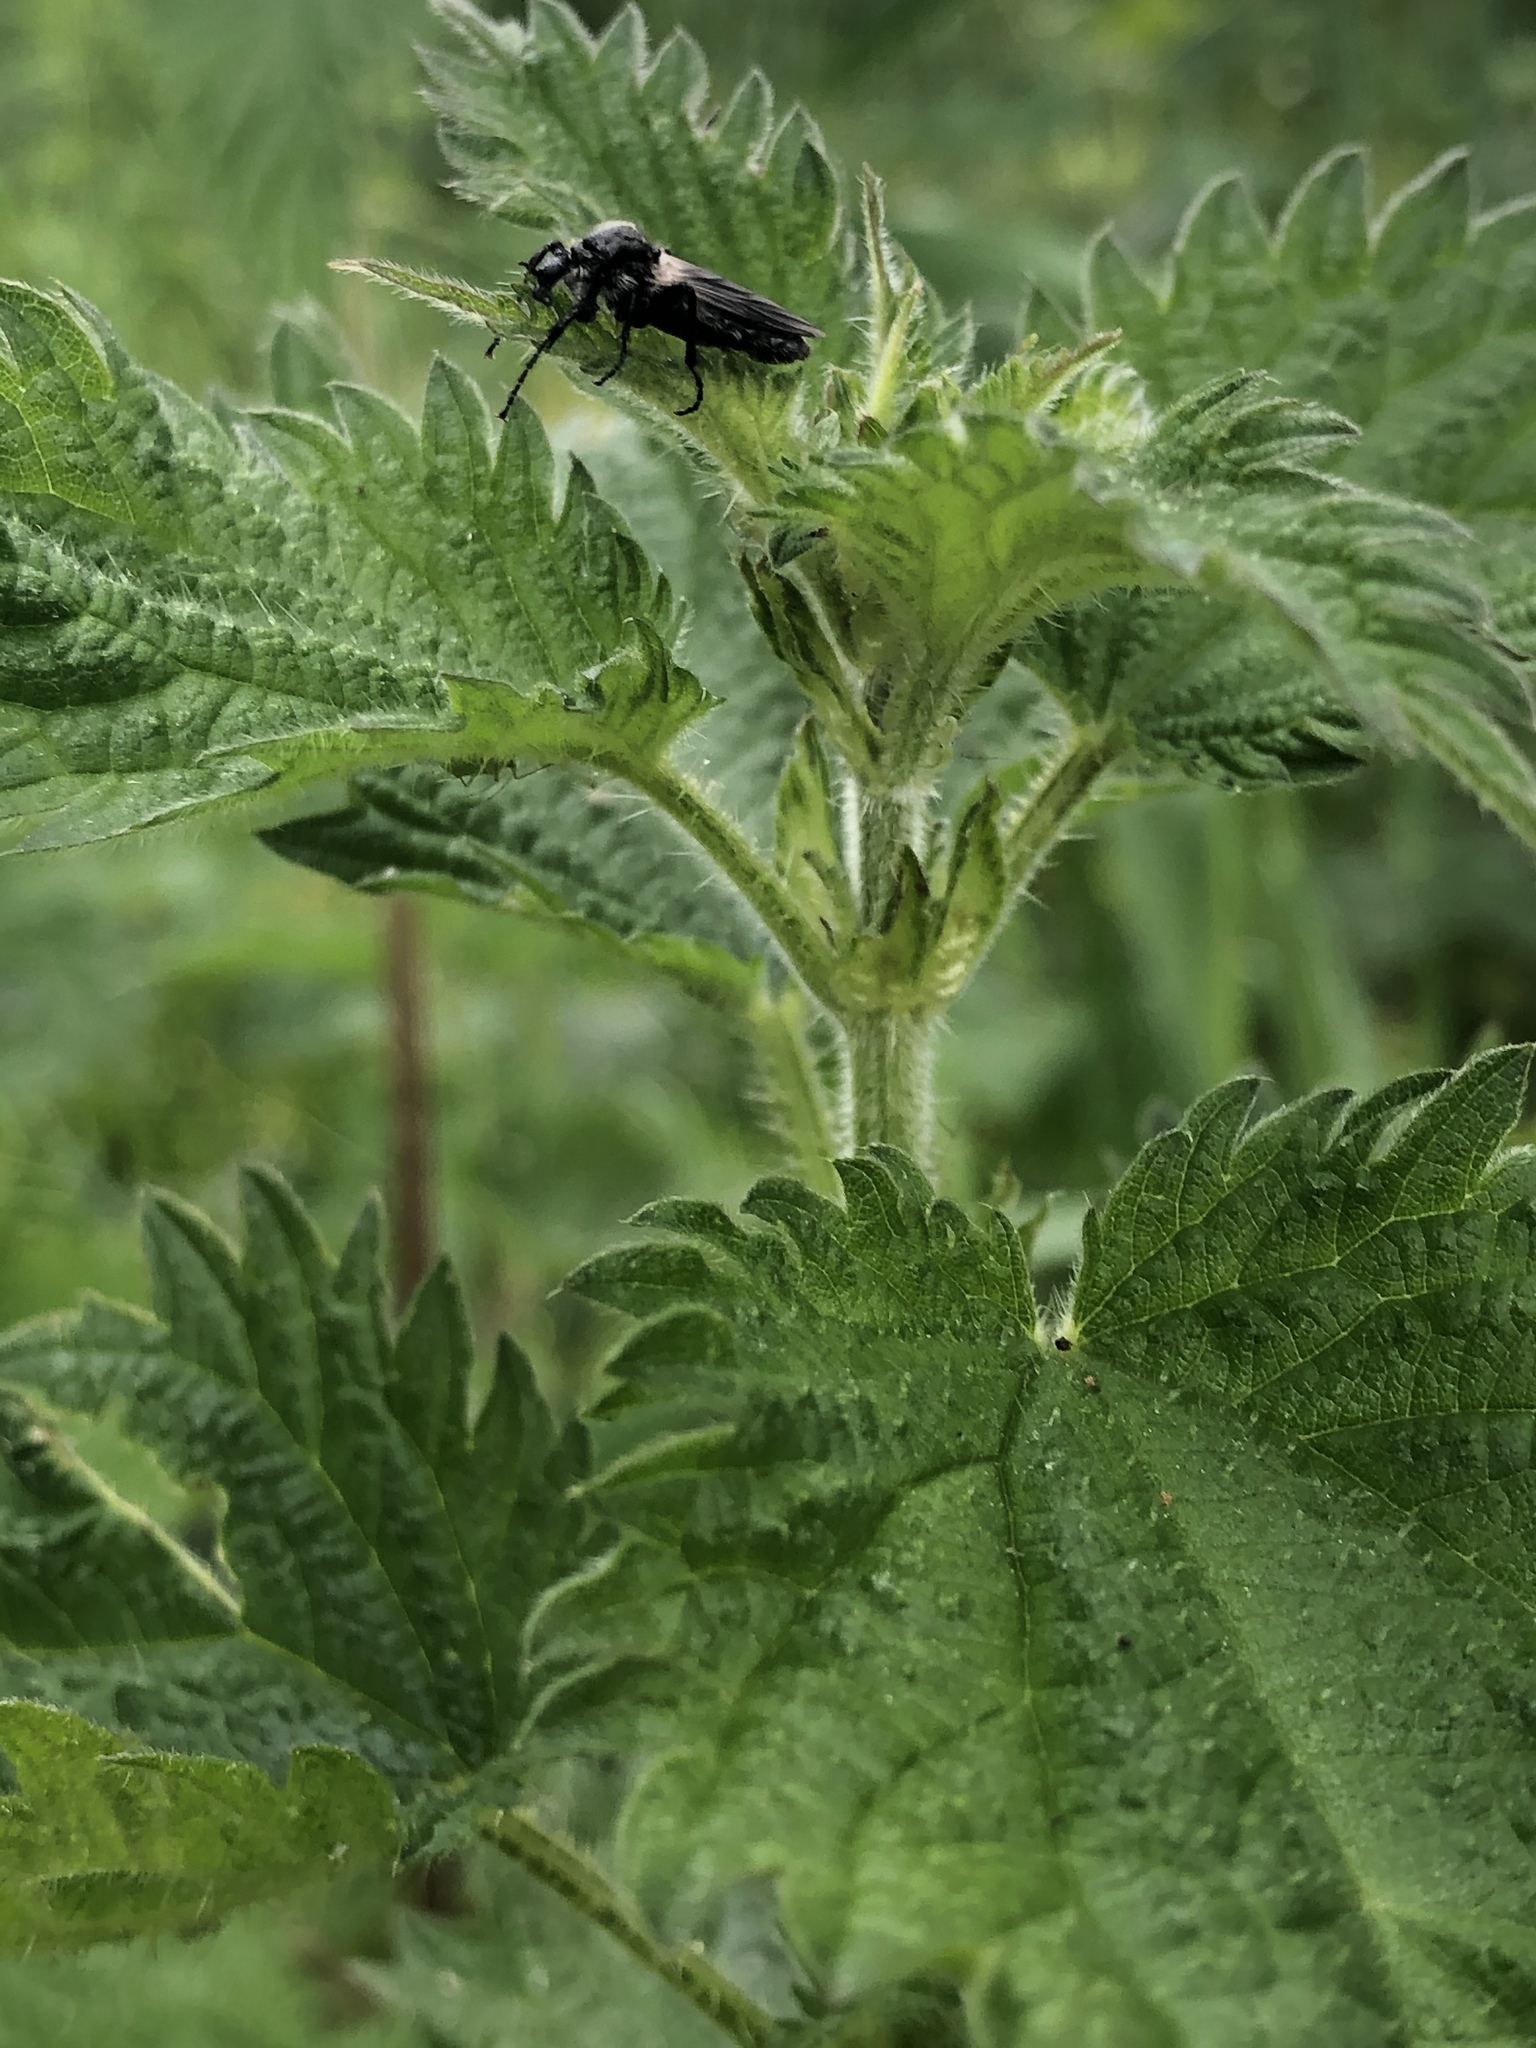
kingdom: Animalia
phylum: Arthropoda
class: Insecta
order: Diptera
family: Bibionidae
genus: Bibio
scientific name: Bibio albipennis
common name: White-winged march fly
